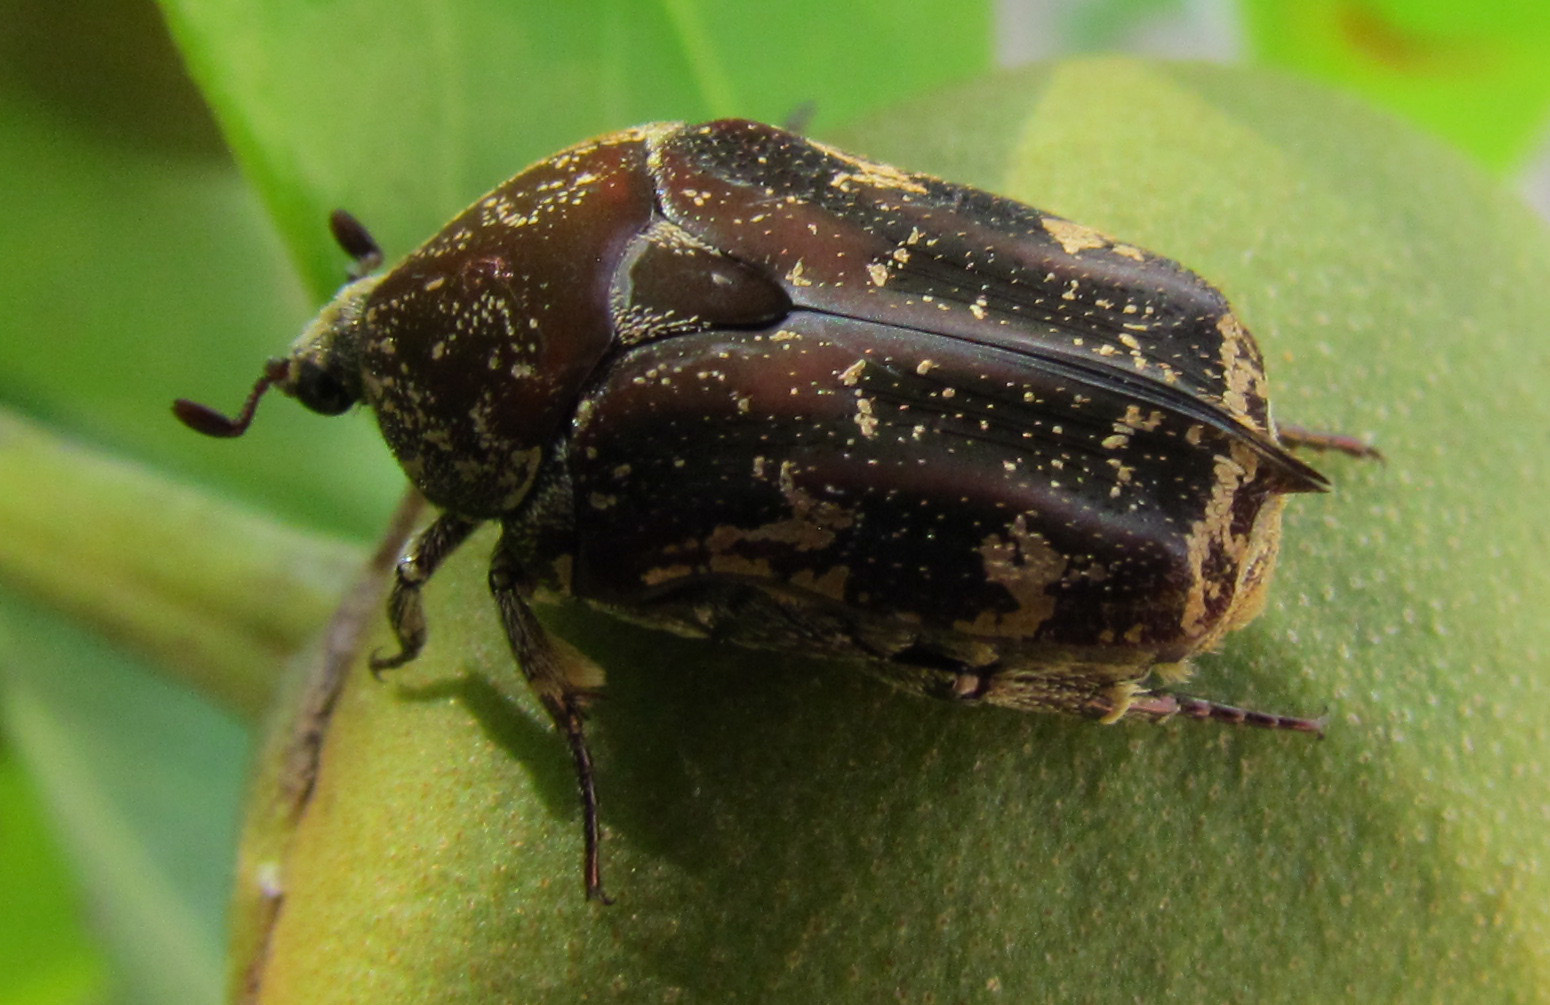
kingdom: Animalia
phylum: Arthropoda
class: Insecta
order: Coleoptera
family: Scarabaeidae
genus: Protaetia
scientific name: Protaetia fusca
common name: Mango flower beetle
